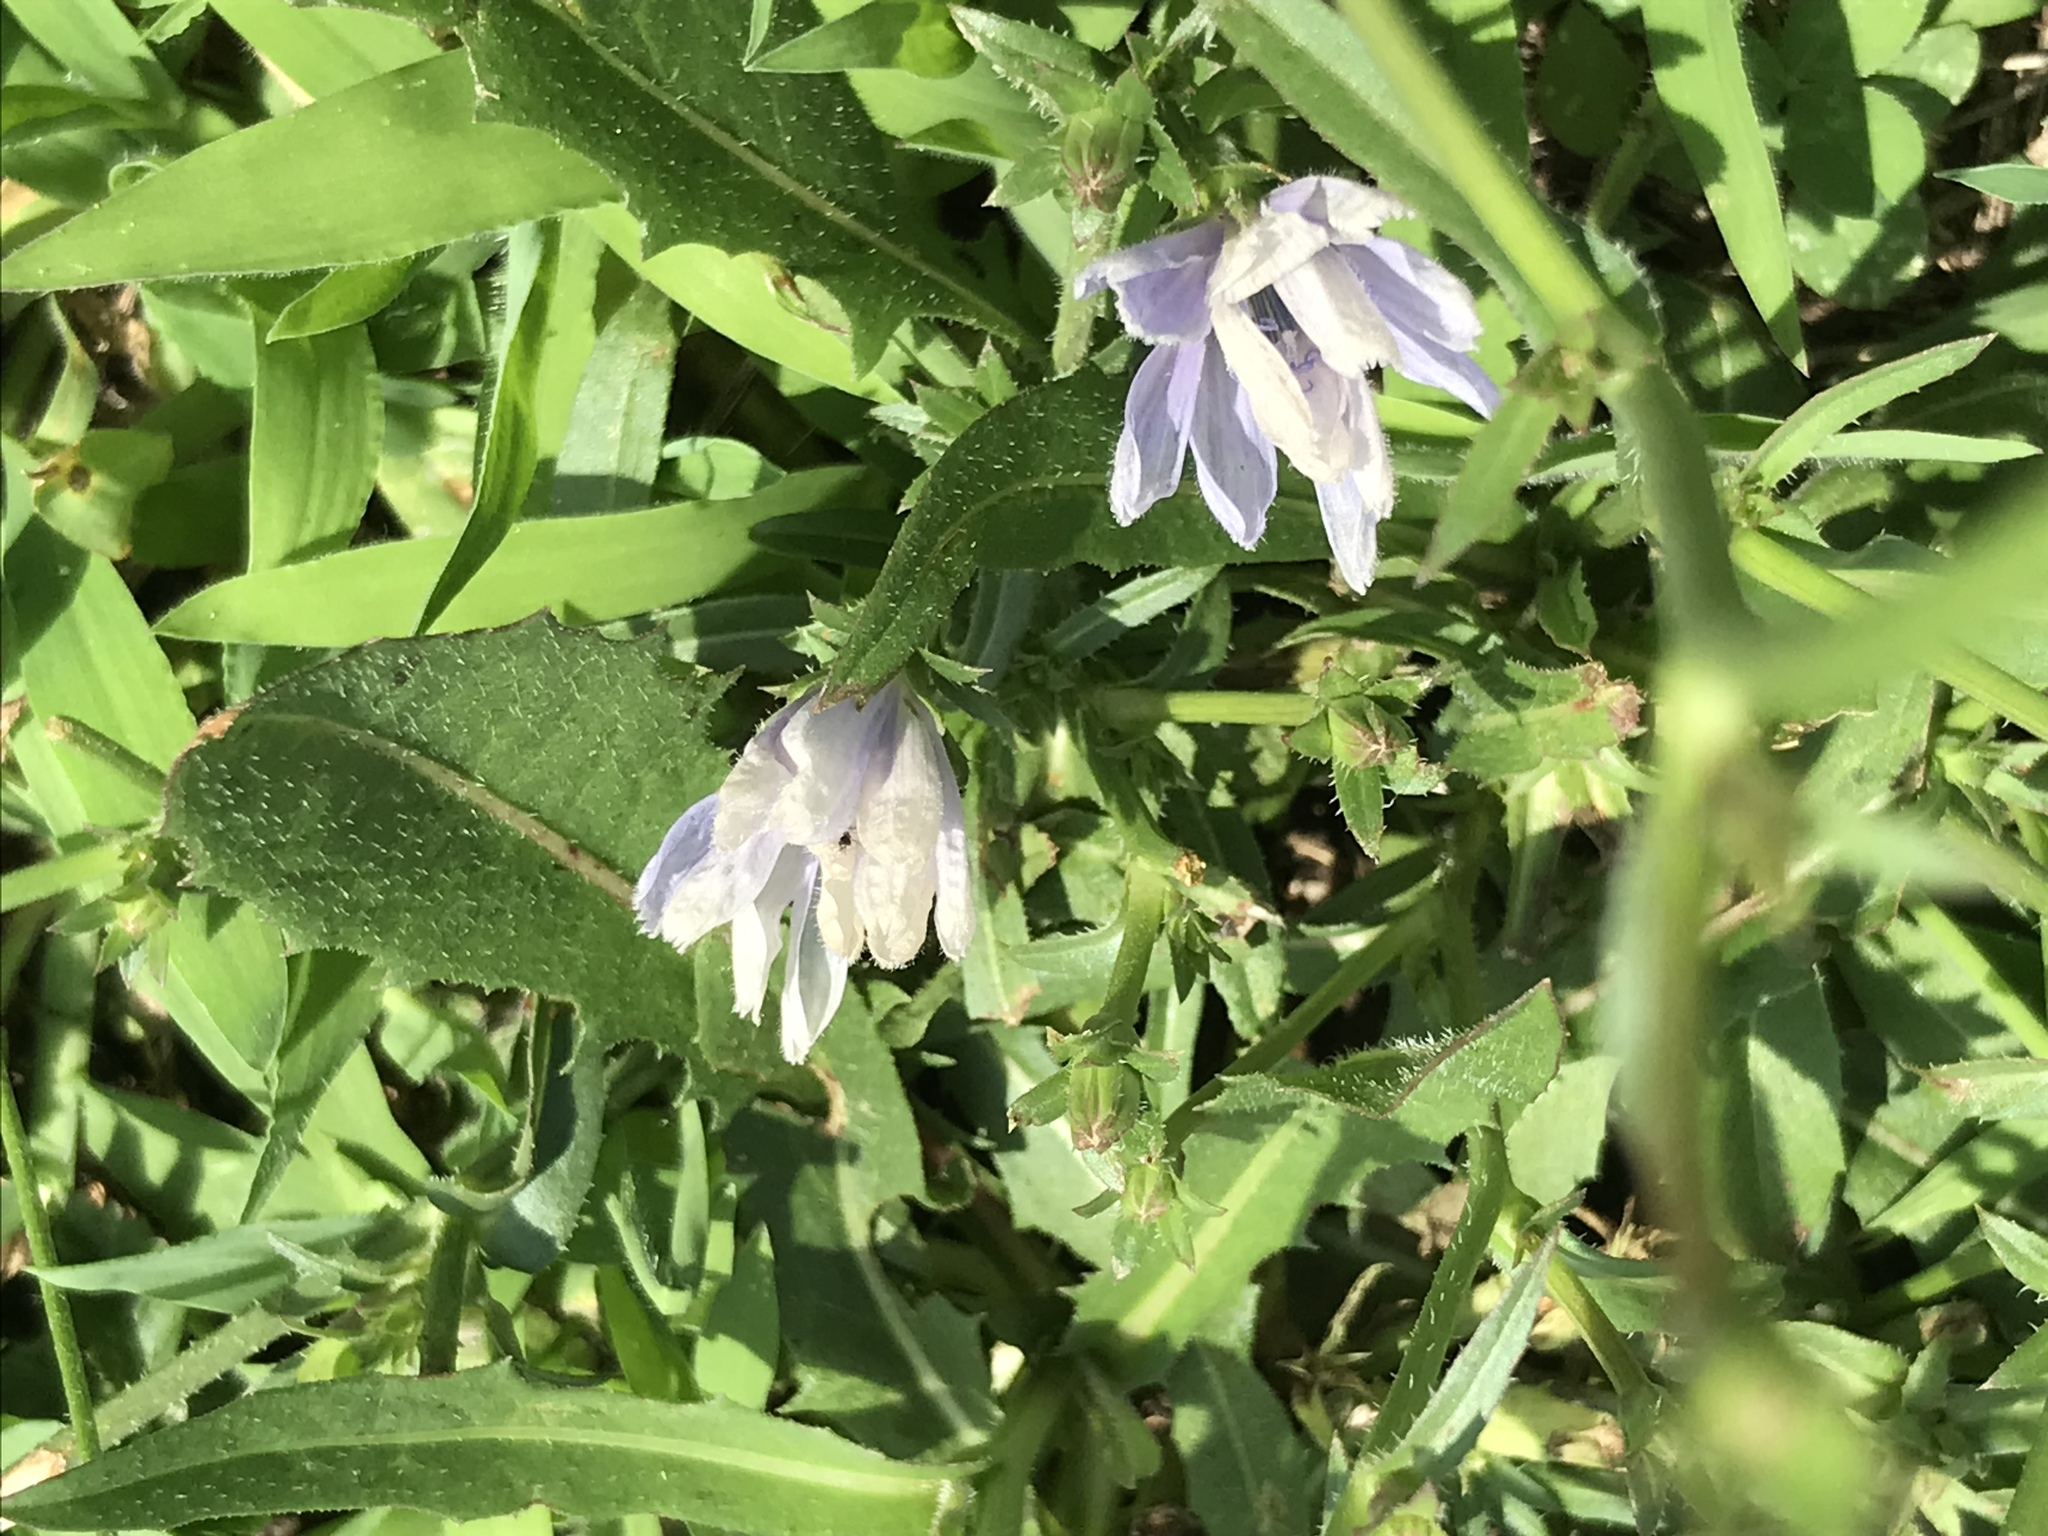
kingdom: Plantae
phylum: Tracheophyta
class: Magnoliopsida
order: Asterales
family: Asteraceae
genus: Cichorium
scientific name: Cichorium intybus
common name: Chicory
